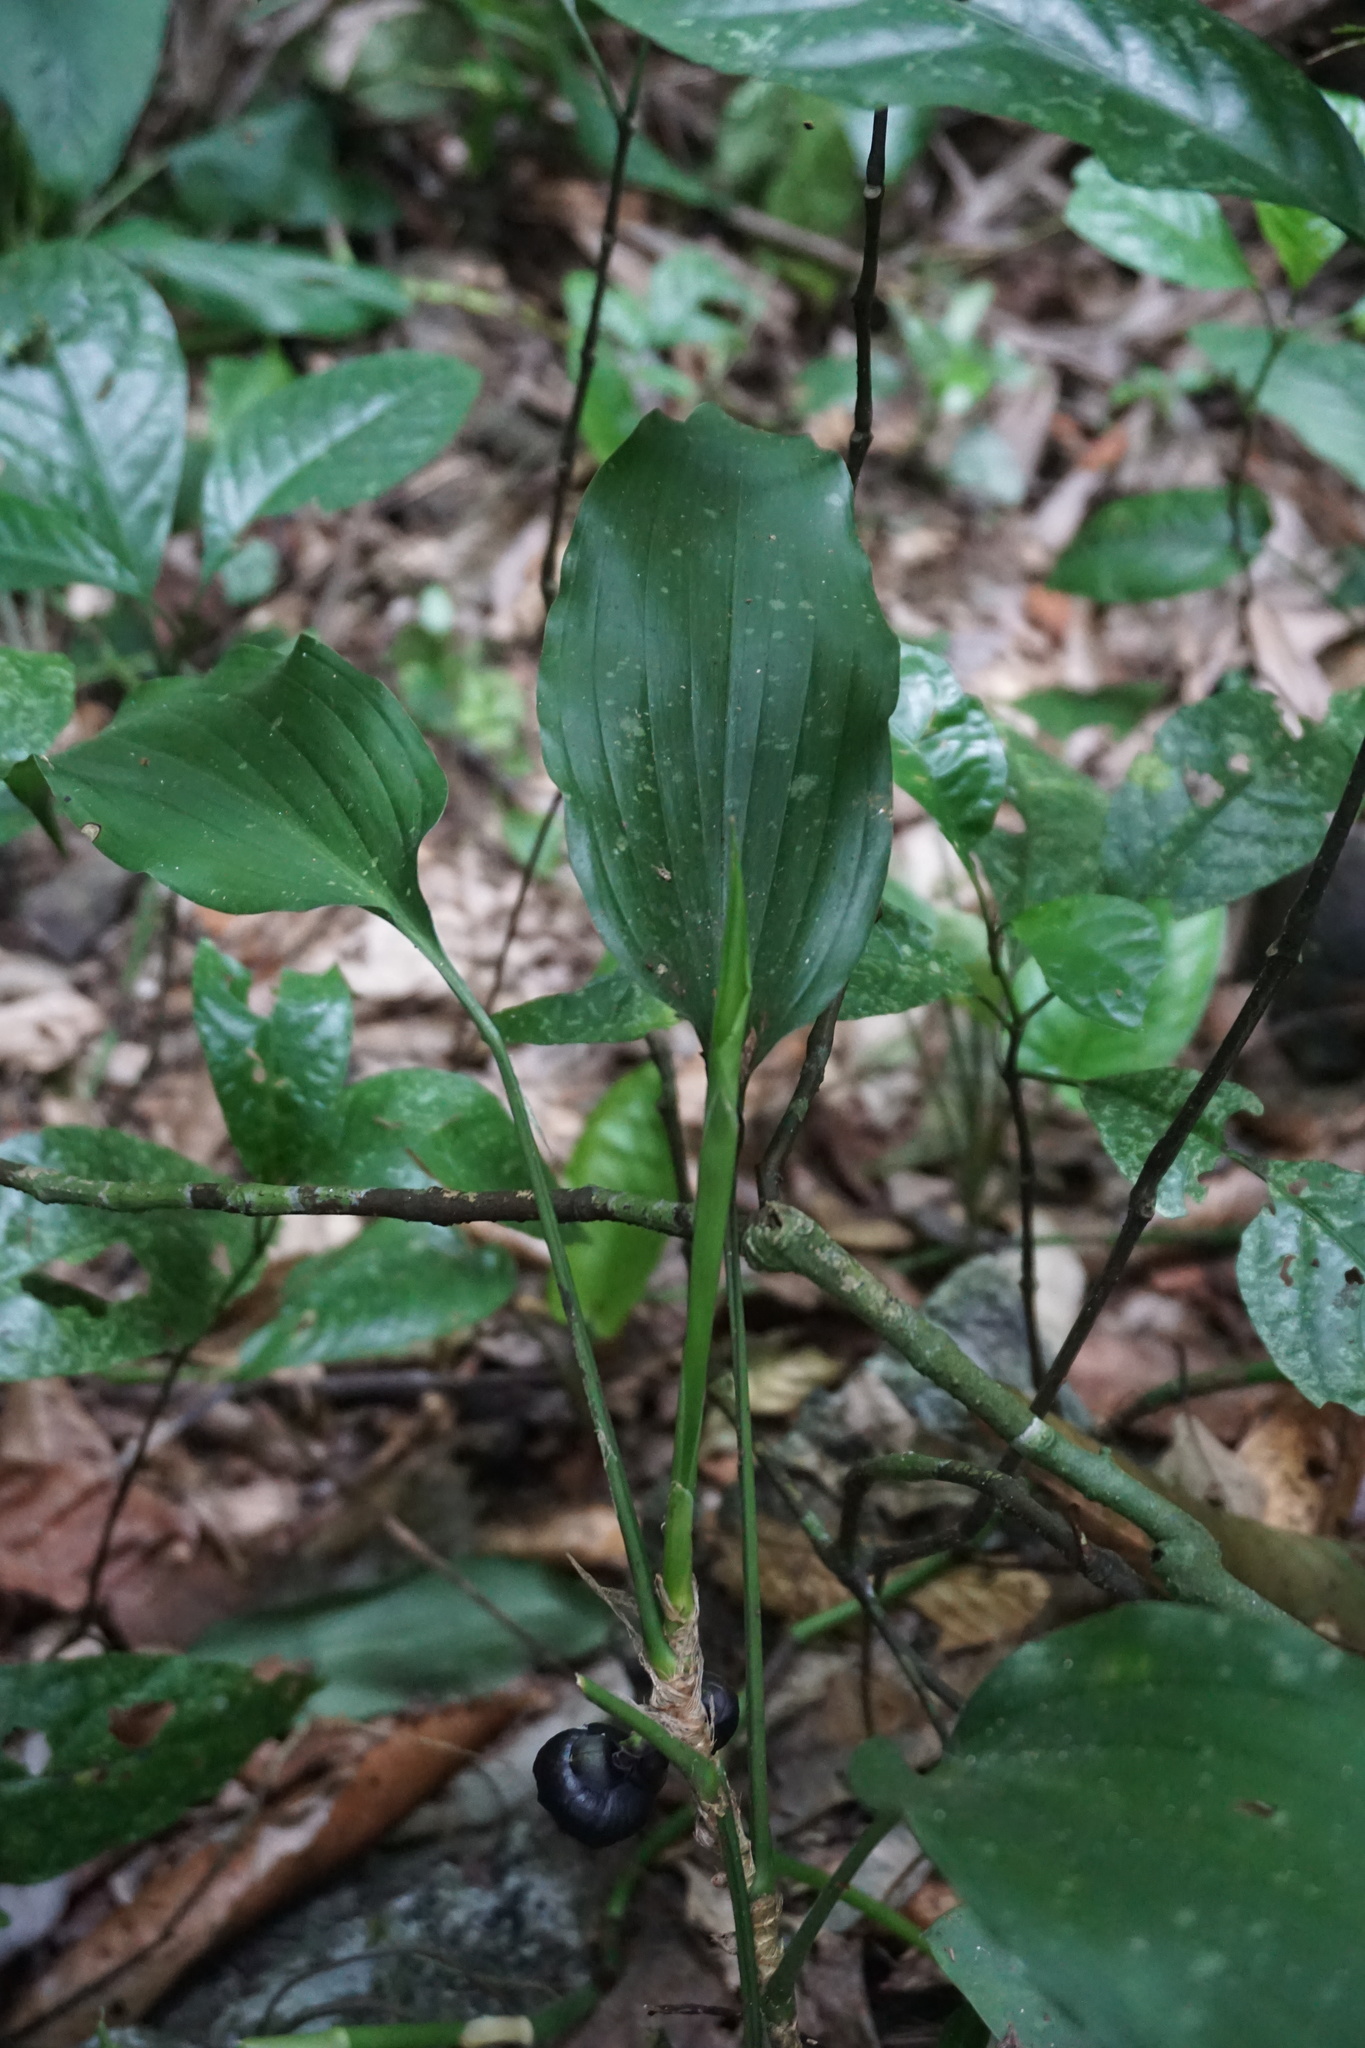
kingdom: Plantae
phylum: Tracheophyta
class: Liliopsida
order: Asparagales
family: Asparagaceae
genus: Aspidistra
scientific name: Aspidistra nikolaii
